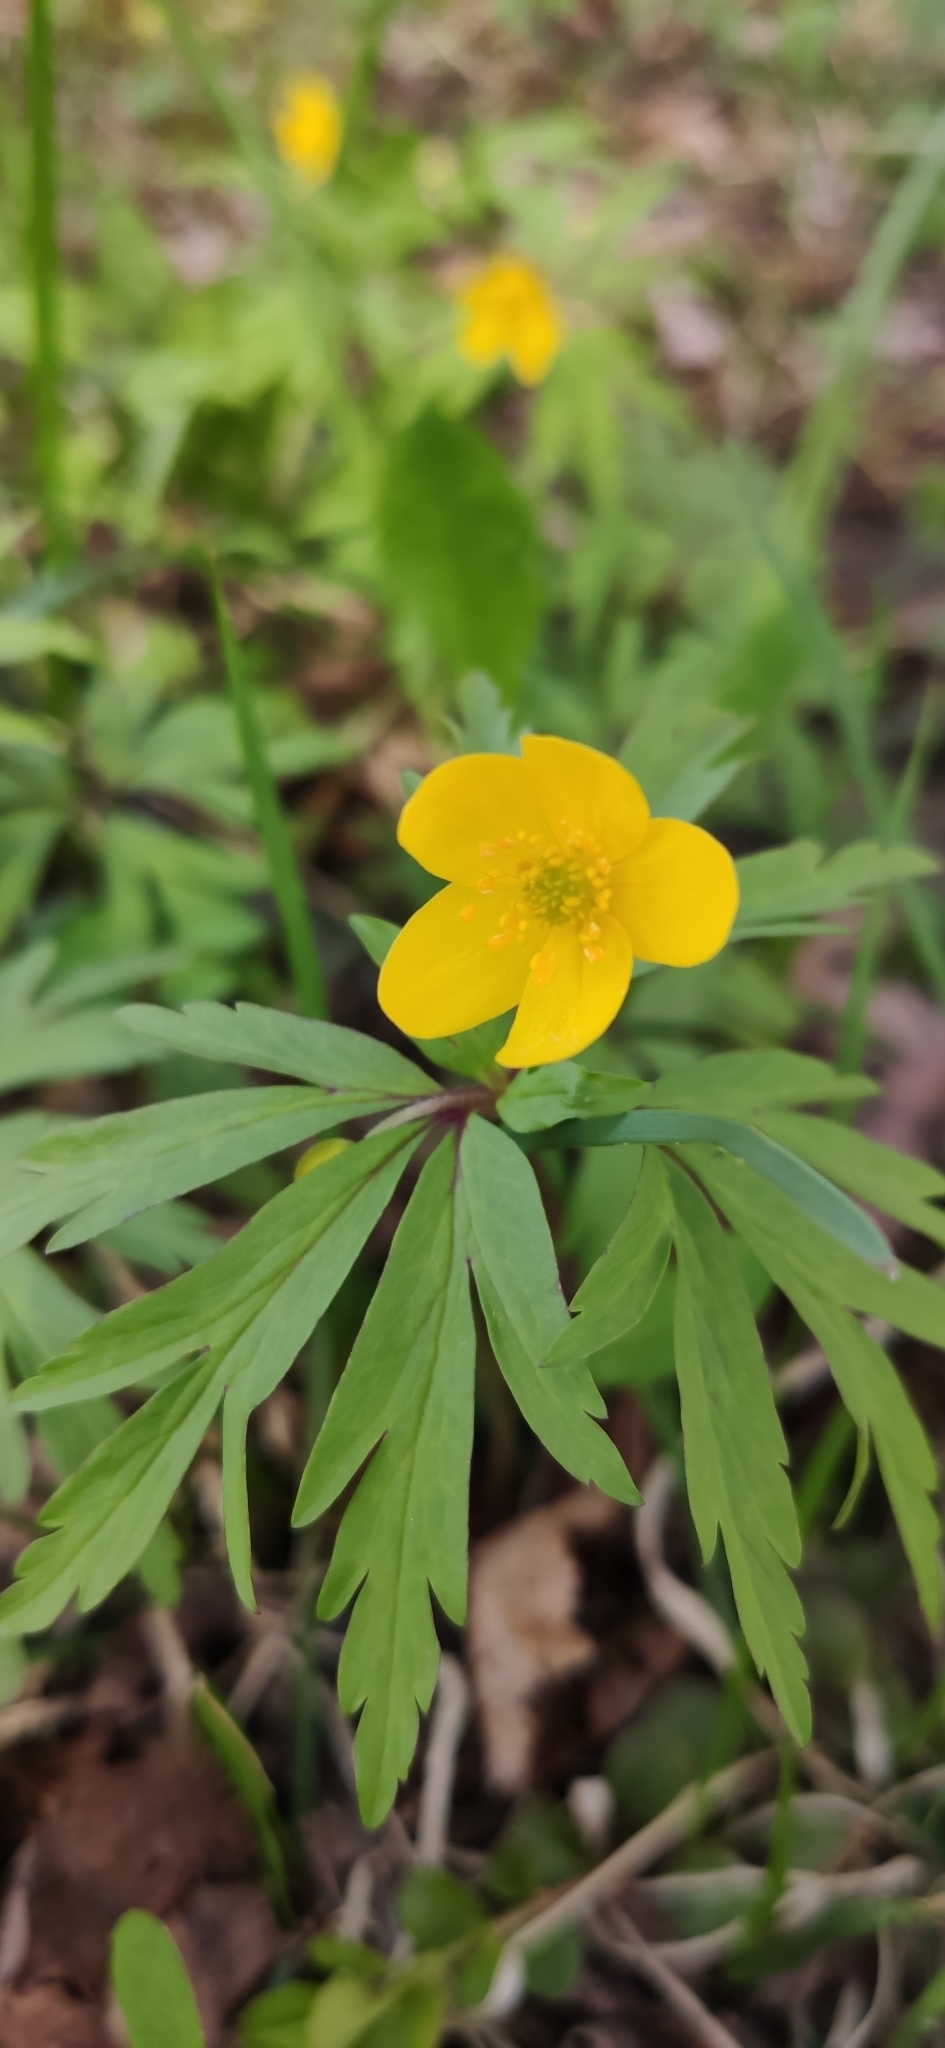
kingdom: Plantae
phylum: Tracheophyta
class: Magnoliopsida
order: Ranunculales
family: Ranunculaceae
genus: Anemone
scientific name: Anemone ranunculoides
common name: Yellow anemone
